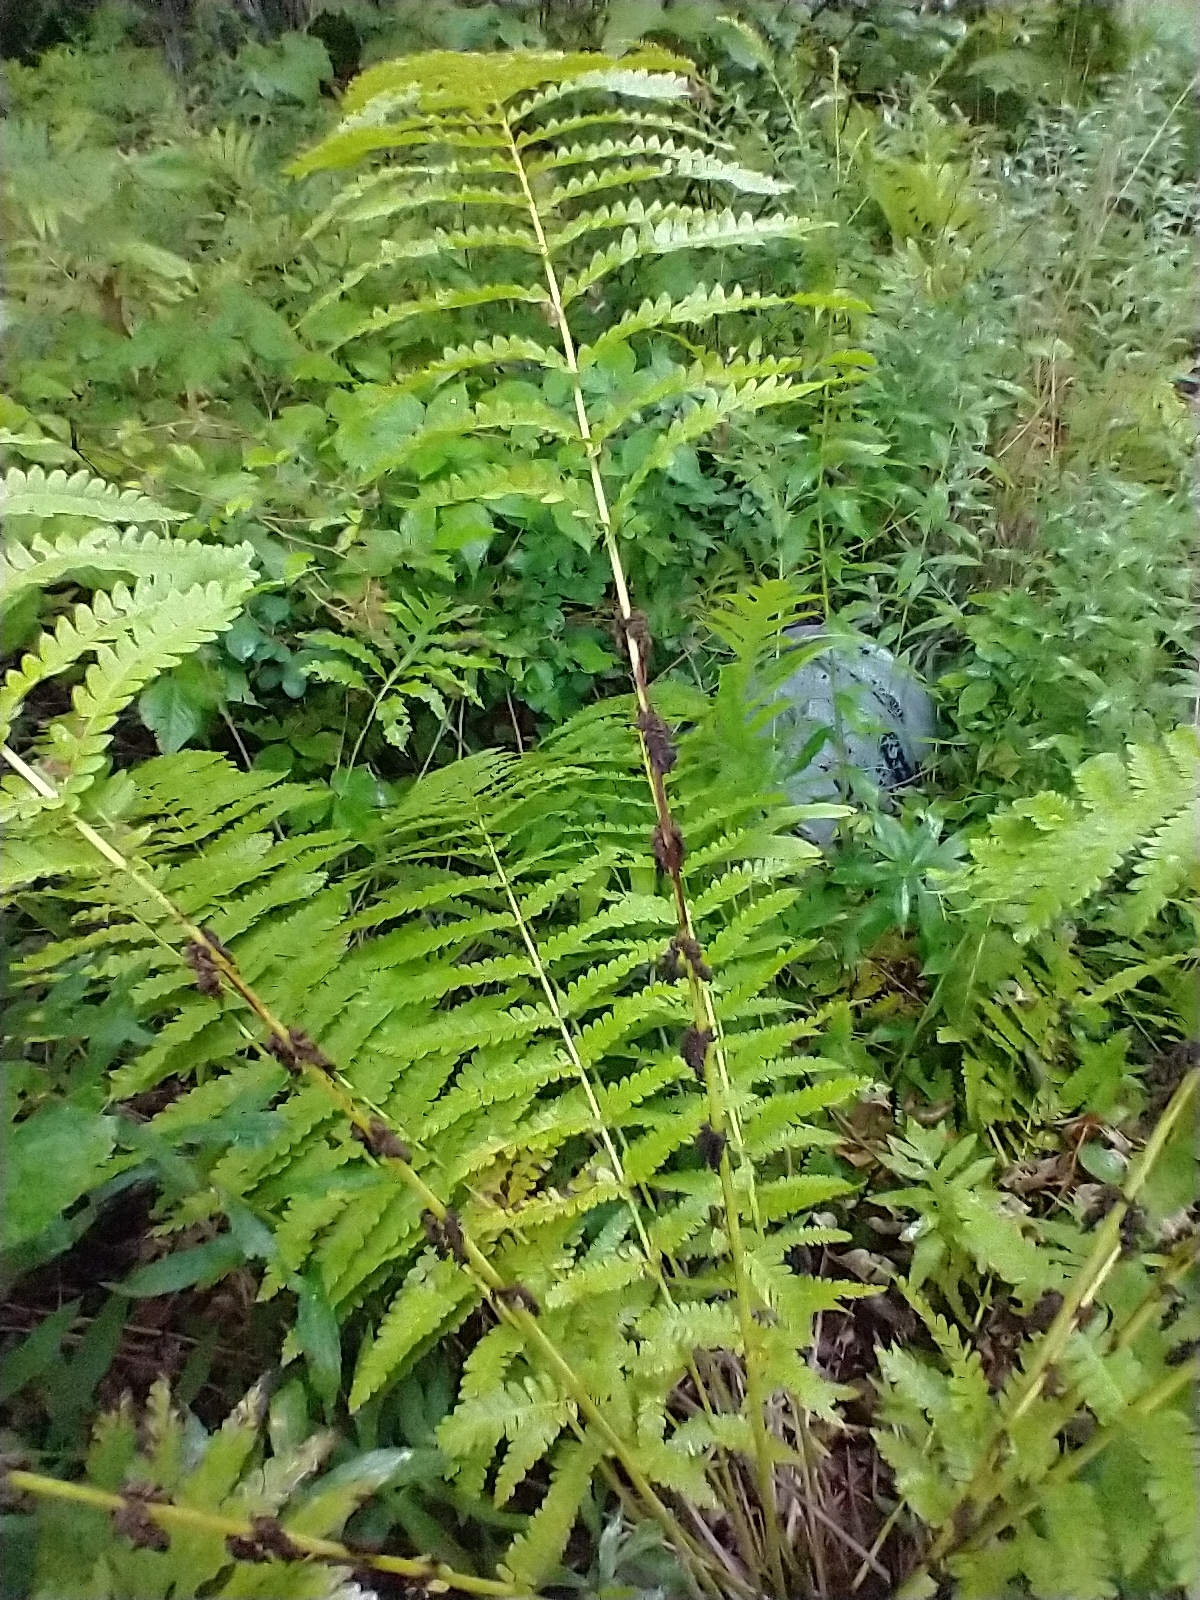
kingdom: Plantae
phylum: Tracheophyta
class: Polypodiopsida
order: Osmundales
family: Osmundaceae
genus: Claytosmunda
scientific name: Claytosmunda claytoniana
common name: Clayton's fern
